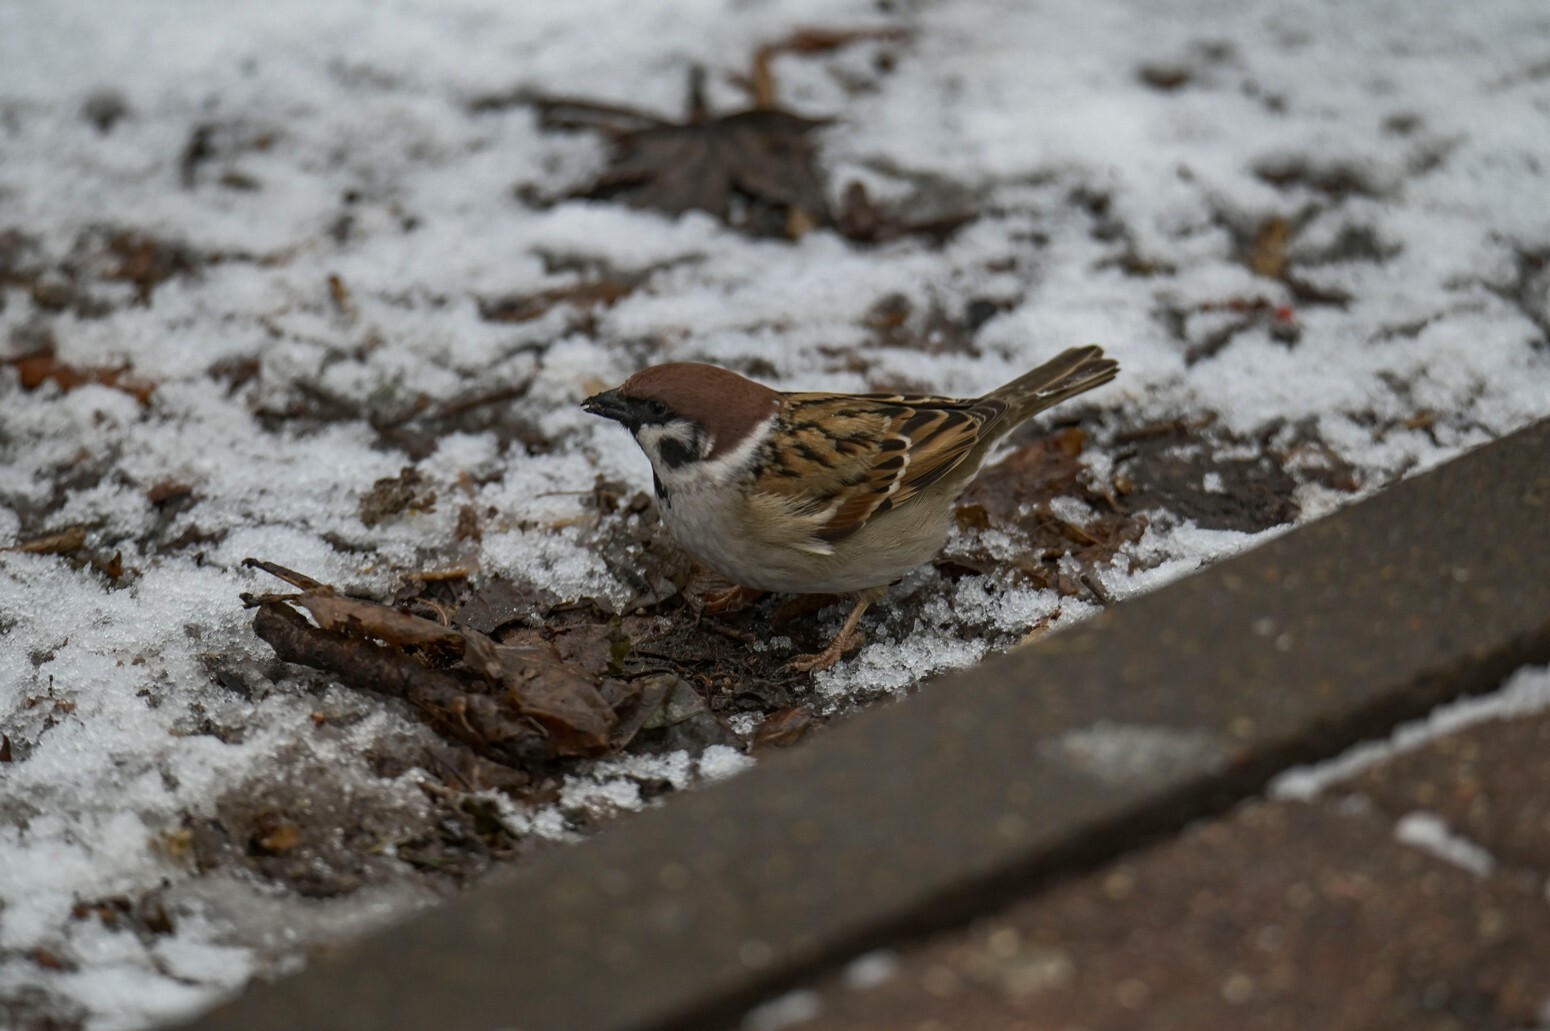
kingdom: Animalia
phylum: Chordata
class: Aves
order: Passeriformes
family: Passeridae
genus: Passer
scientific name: Passer montanus
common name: Eurasian tree sparrow
